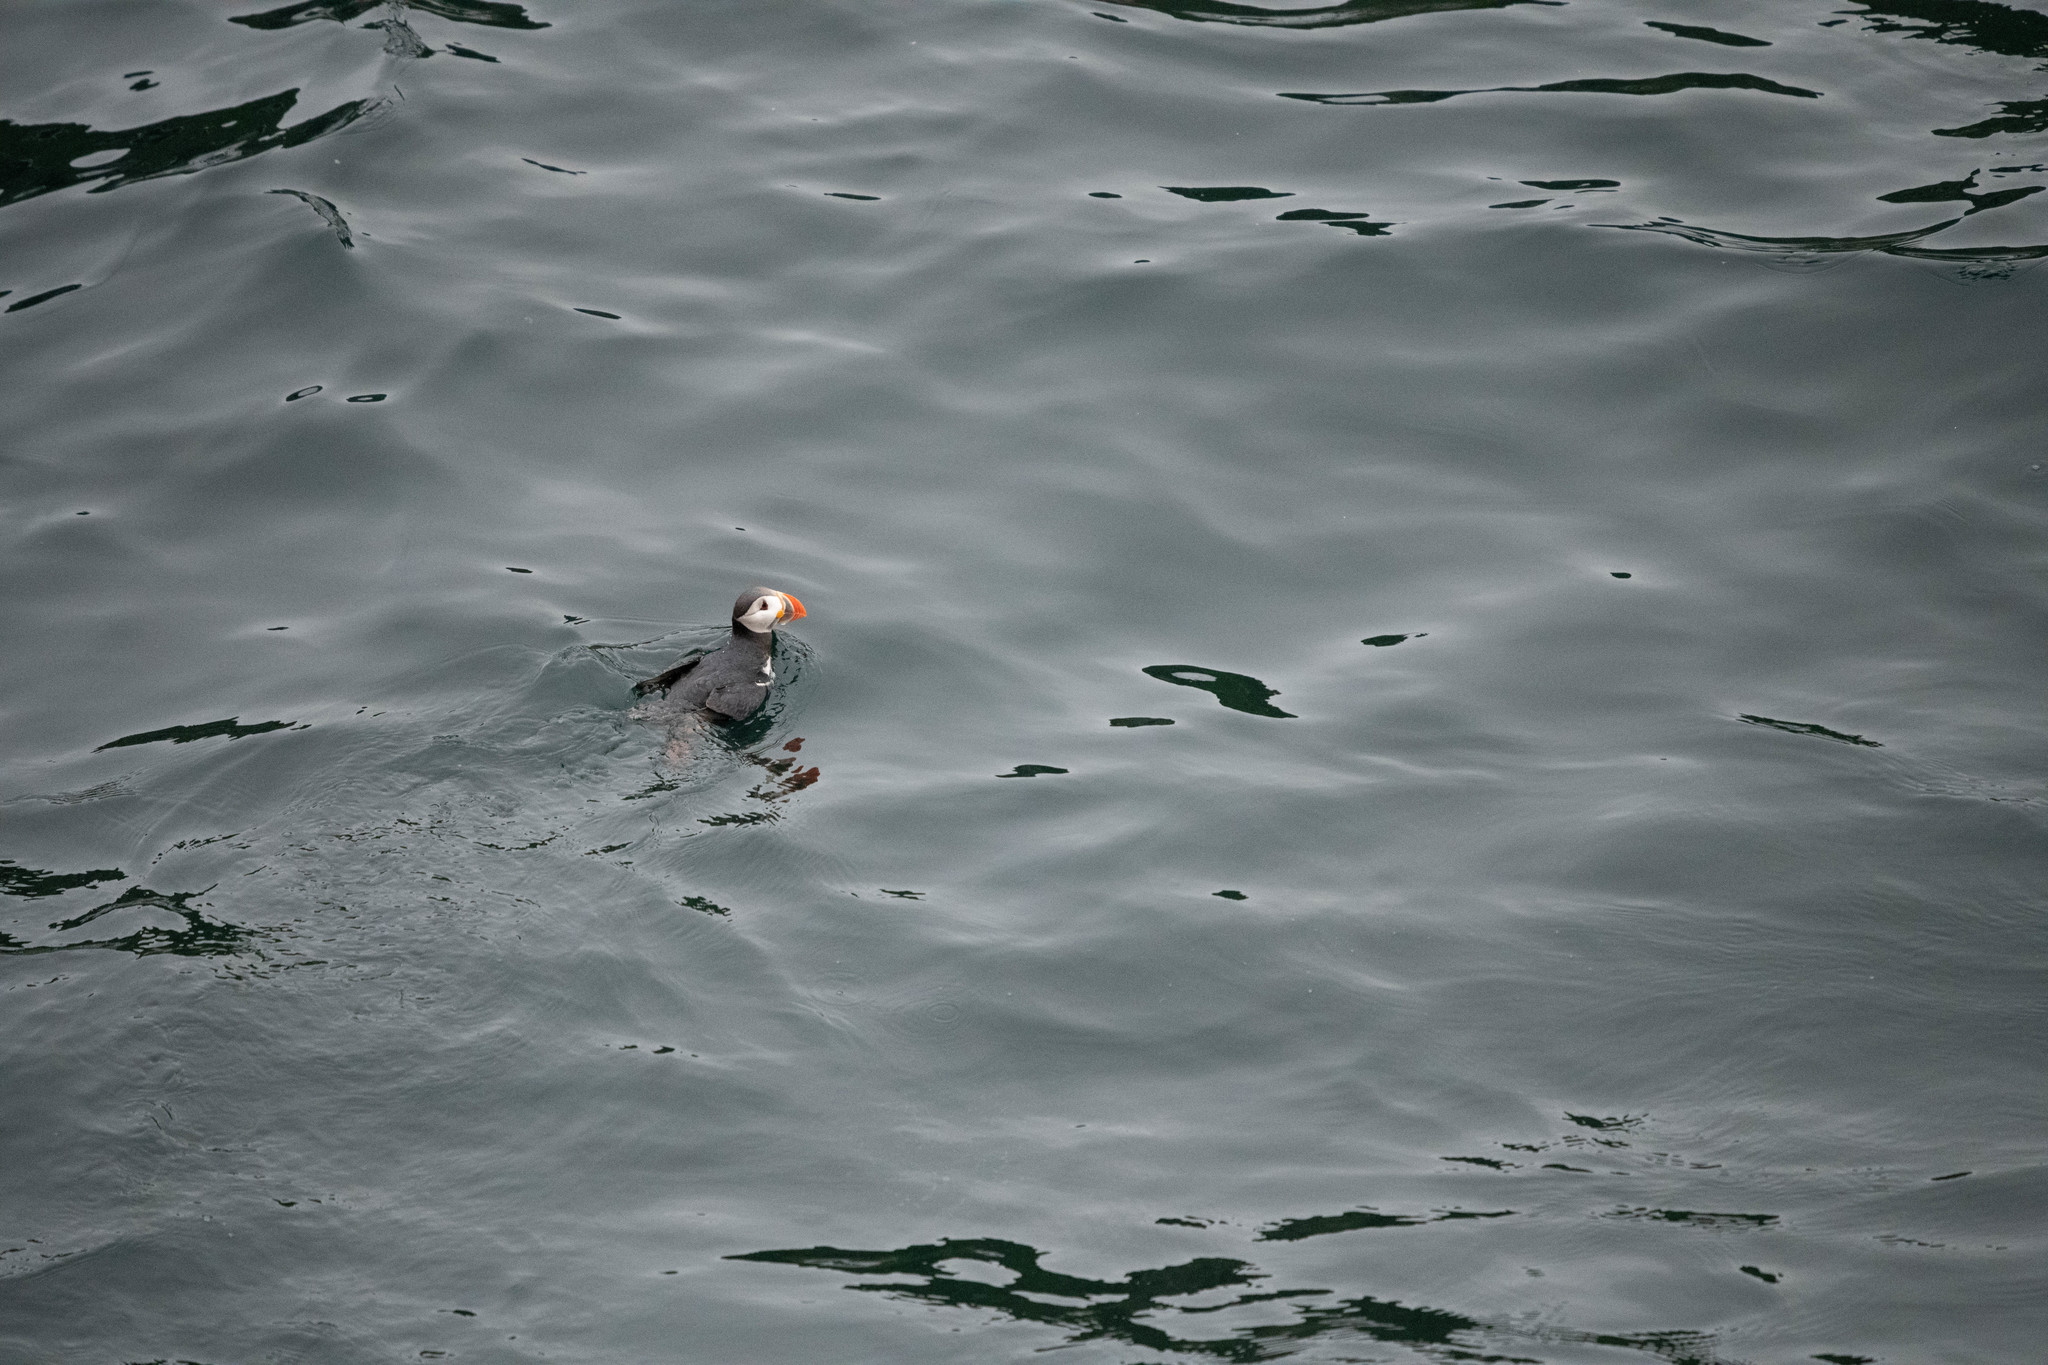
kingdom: Animalia
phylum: Chordata
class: Aves
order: Charadriiformes
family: Alcidae
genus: Fratercula
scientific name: Fratercula arctica
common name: Atlantic puffin
